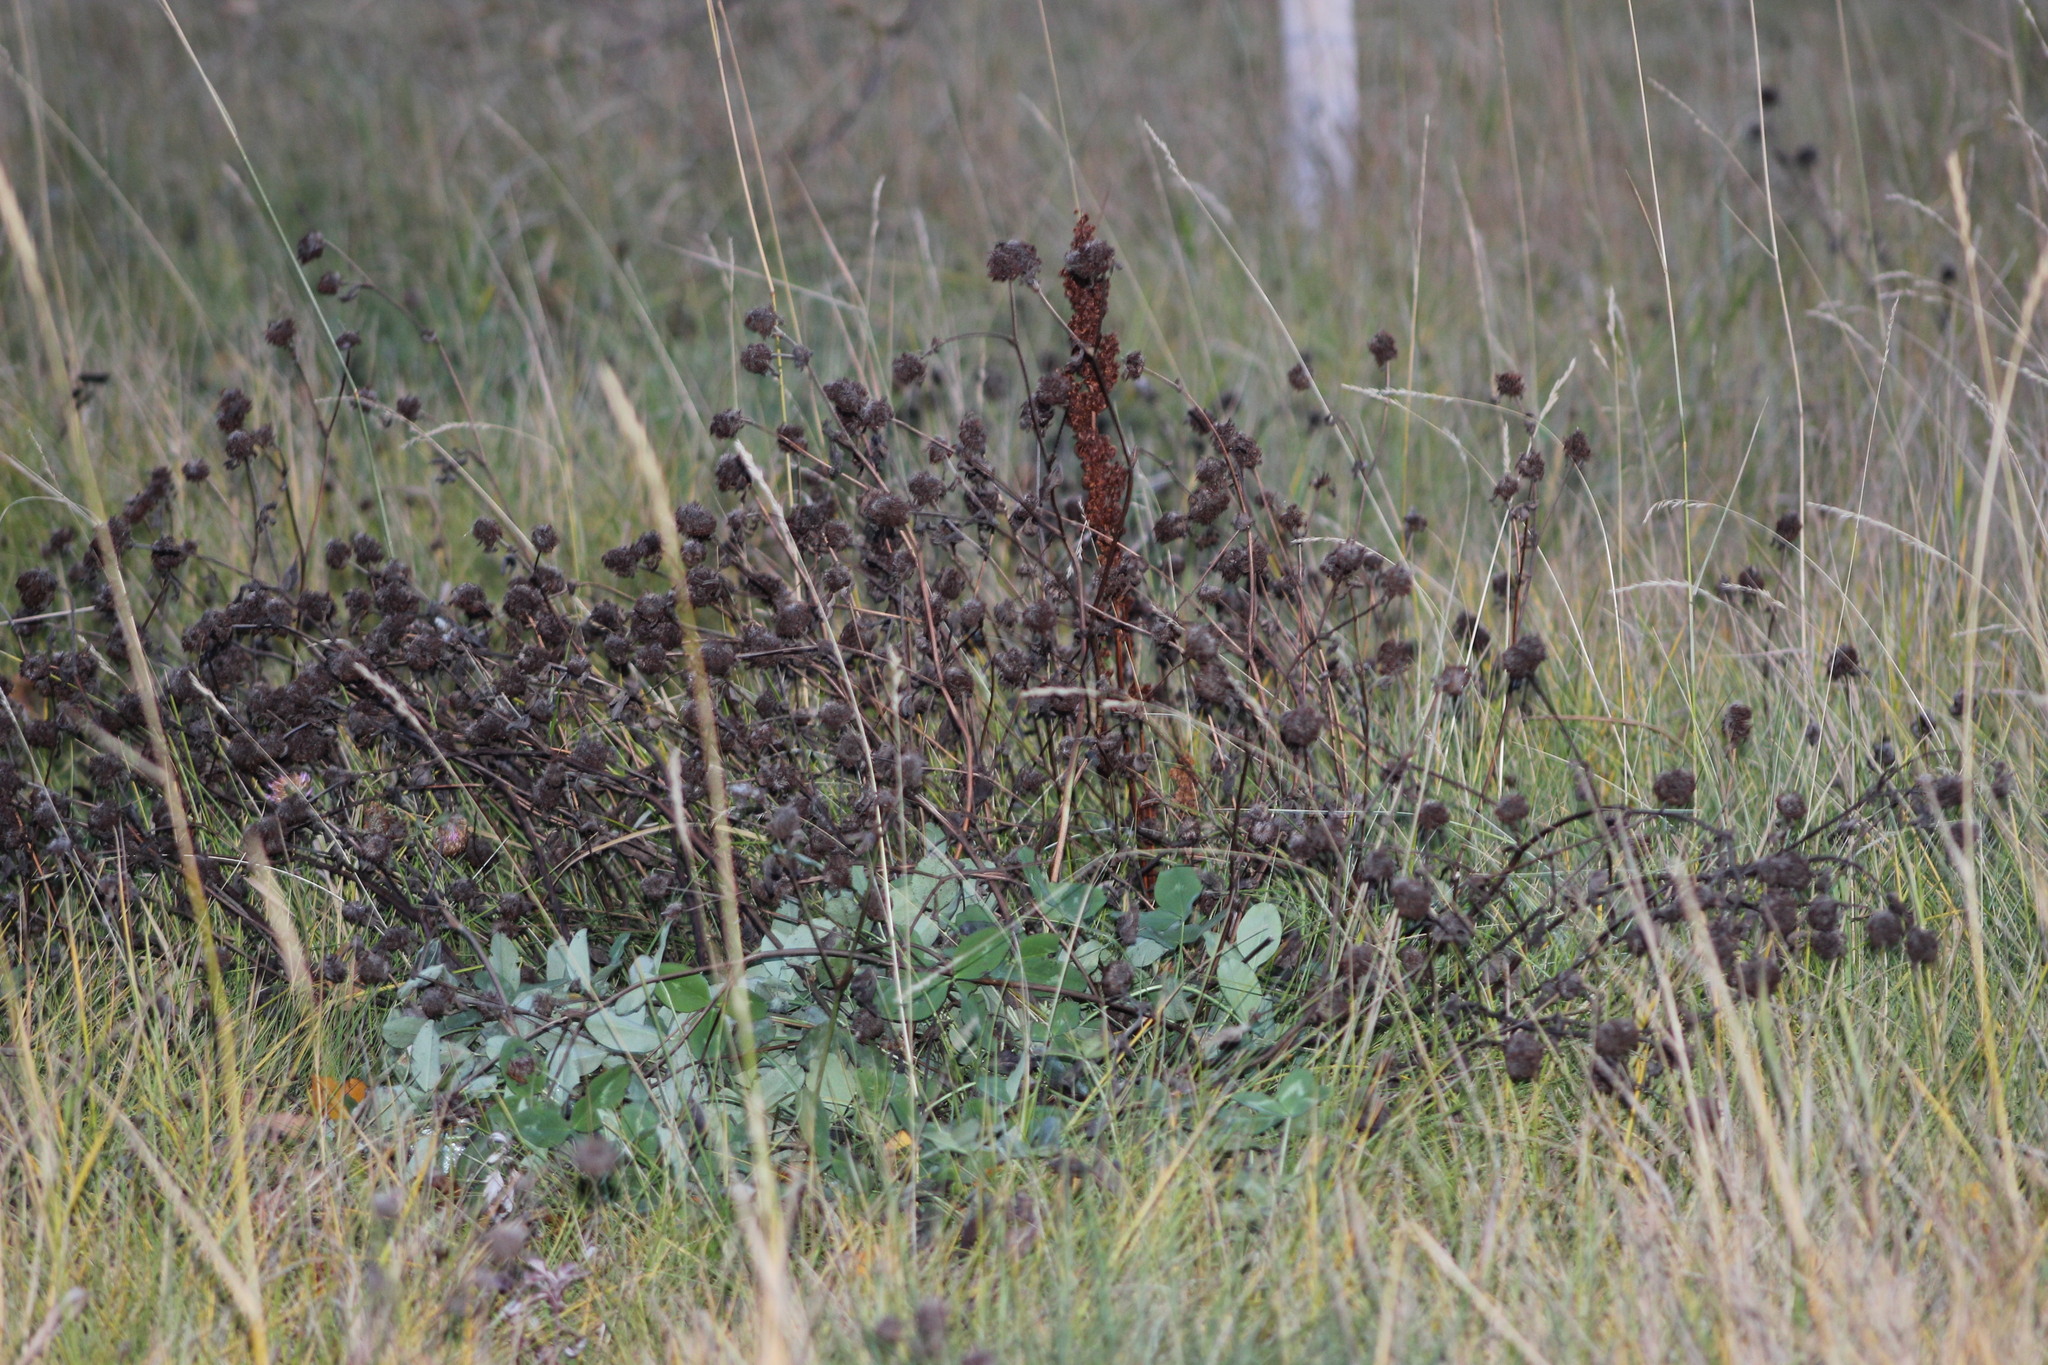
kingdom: Plantae
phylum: Tracheophyta
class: Magnoliopsida
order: Fabales
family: Fabaceae
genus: Trifolium
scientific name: Trifolium pratense
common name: Red clover
